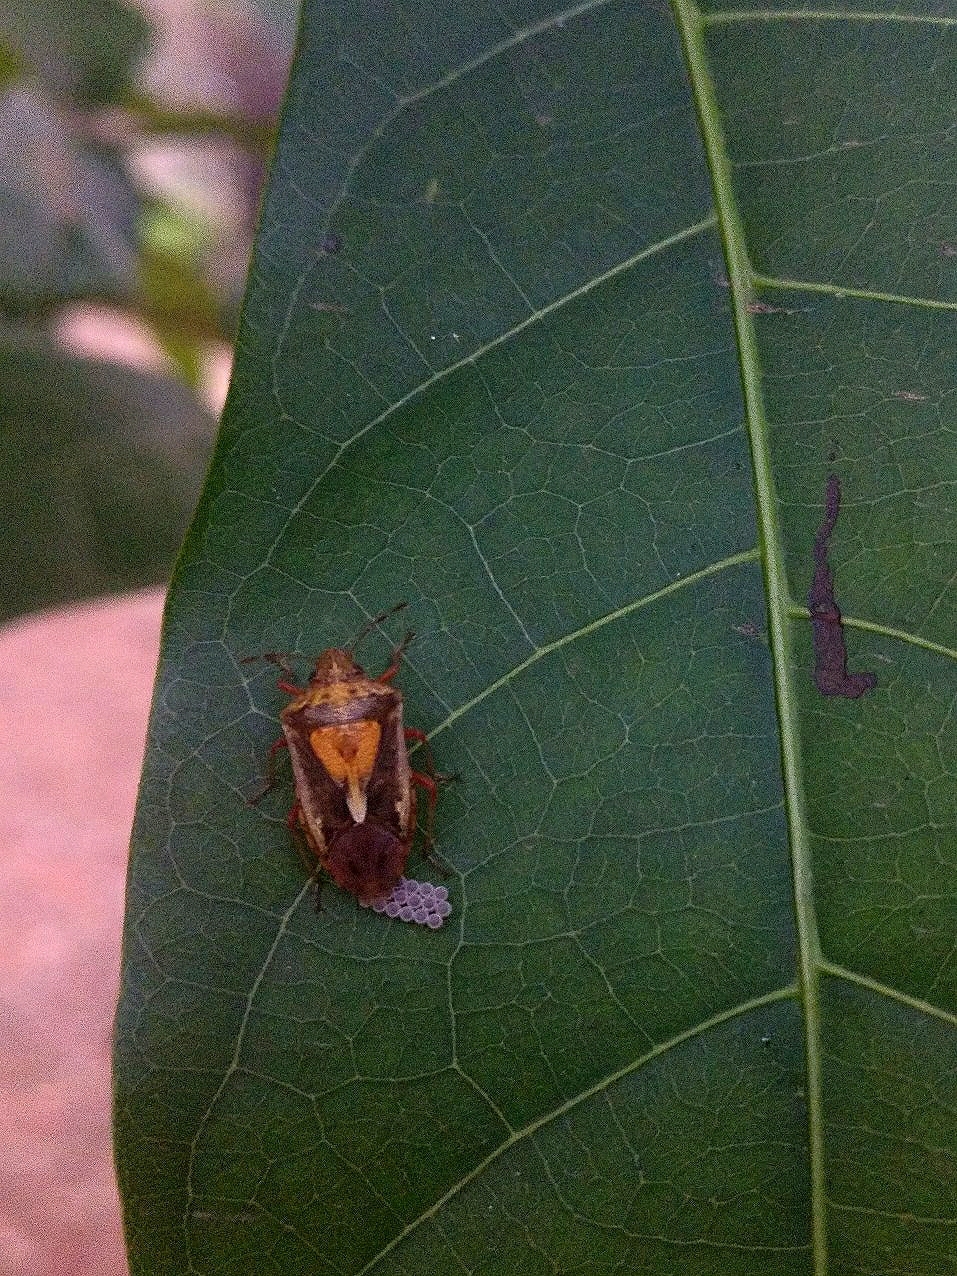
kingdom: Animalia
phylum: Arthropoda
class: Insecta
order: Hemiptera
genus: Udonga
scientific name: Udonga
